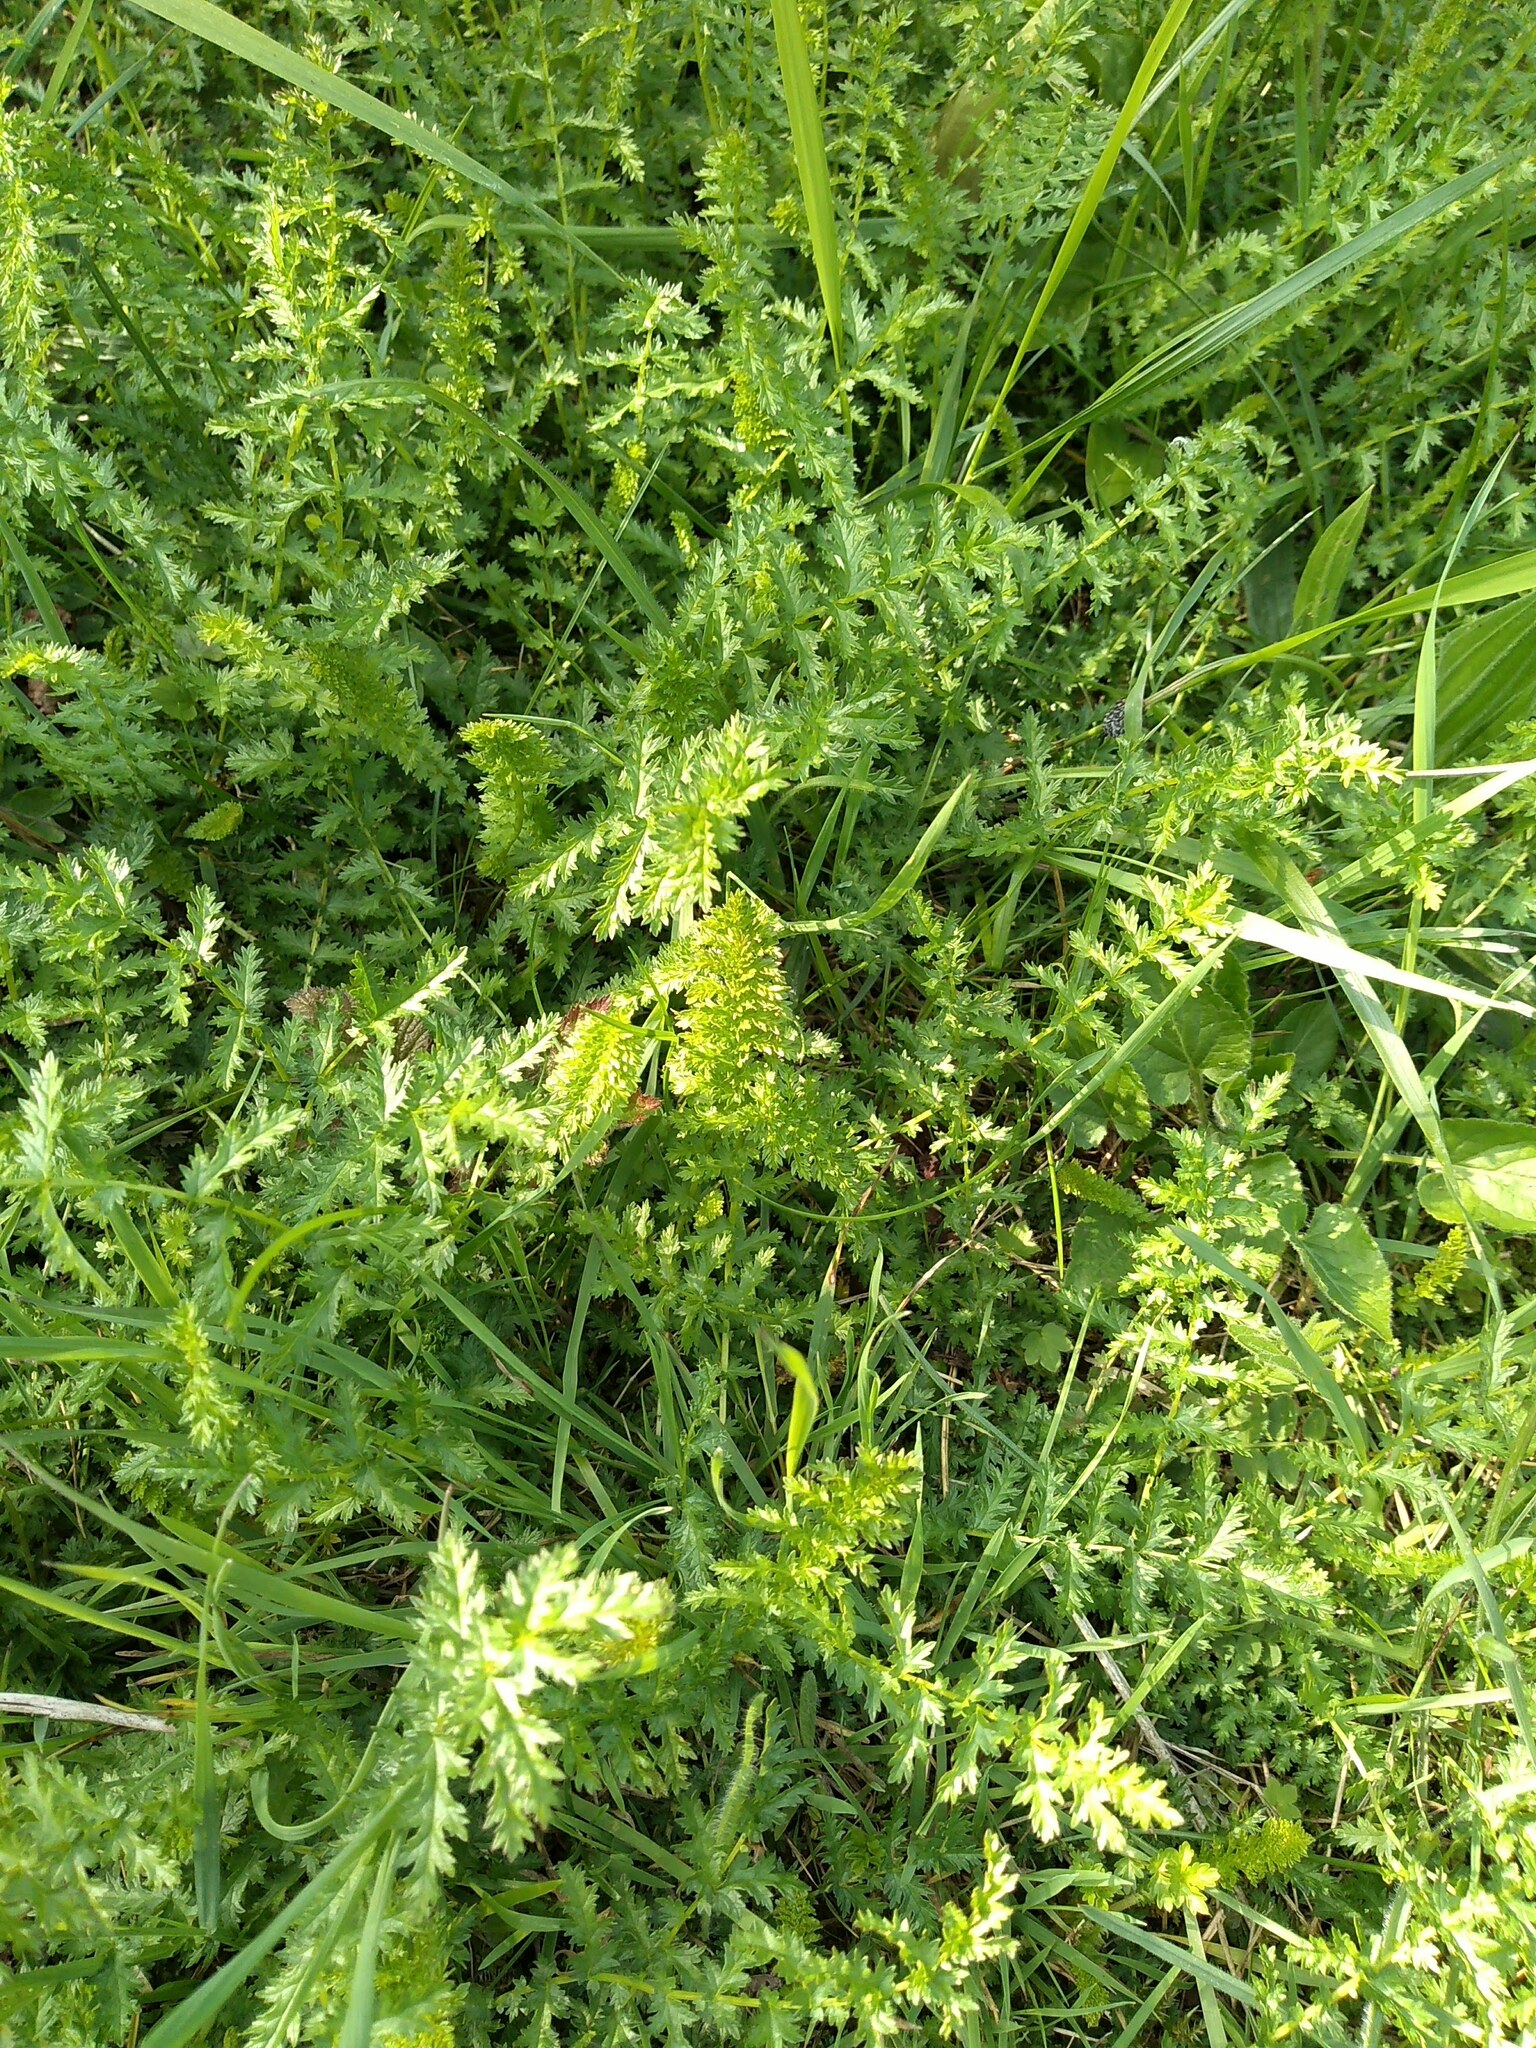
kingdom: Plantae
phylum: Tracheophyta
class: Magnoliopsida
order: Rosales
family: Rosaceae
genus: Filipendula
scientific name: Filipendula vulgaris
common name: Dropwort
